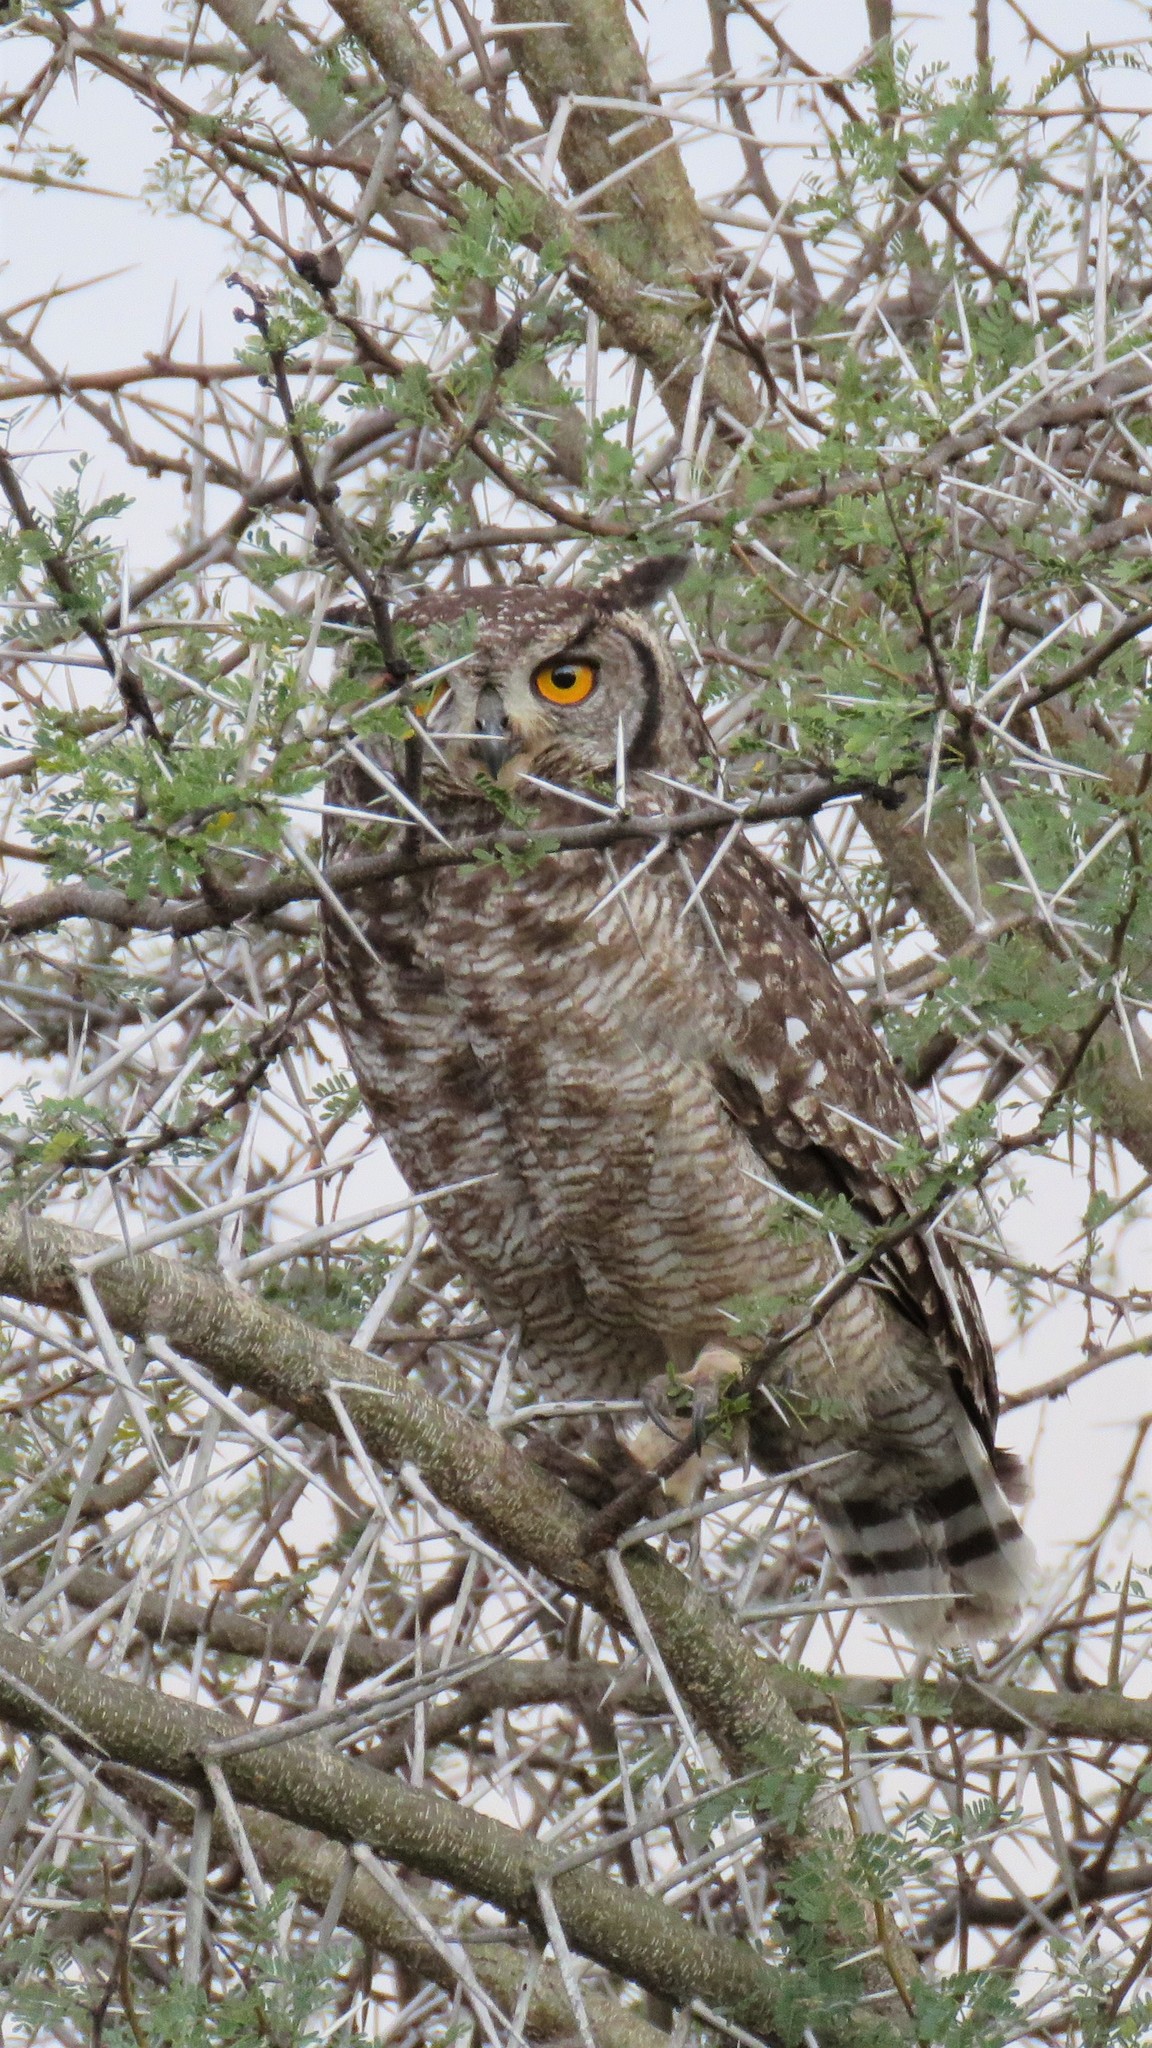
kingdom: Animalia
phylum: Chordata
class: Aves
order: Strigiformes
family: Strigidae
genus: Bubo
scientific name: Bubo africanus
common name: Spotted eagle-owl
